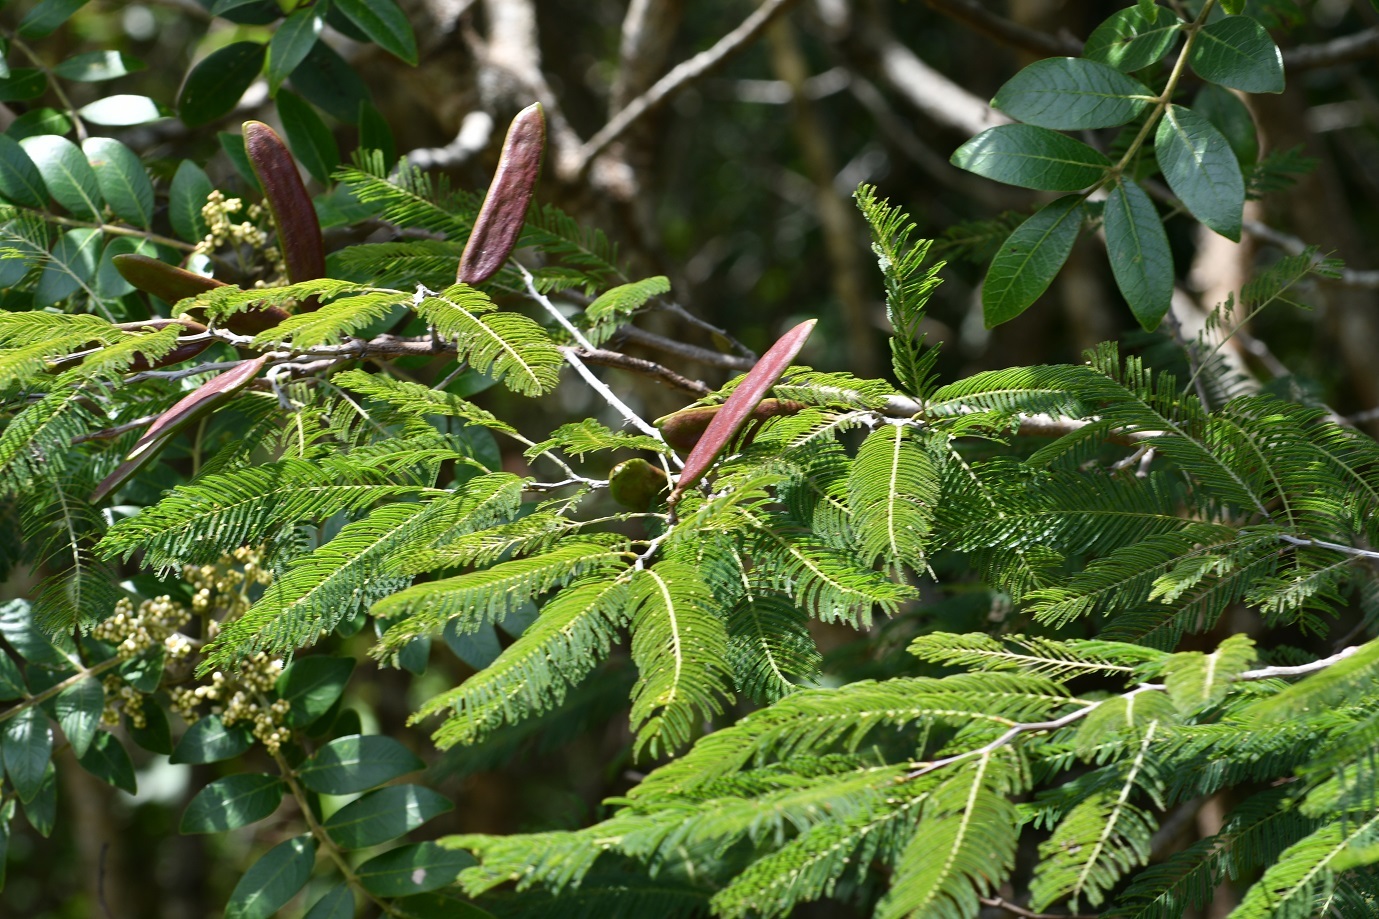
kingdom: Plantae
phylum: Tracheophyta
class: Magnoliopsida
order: Fabales
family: Fabaceae
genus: Vachellia
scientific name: Vachellia pennatula
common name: Fern-leaf acacia
